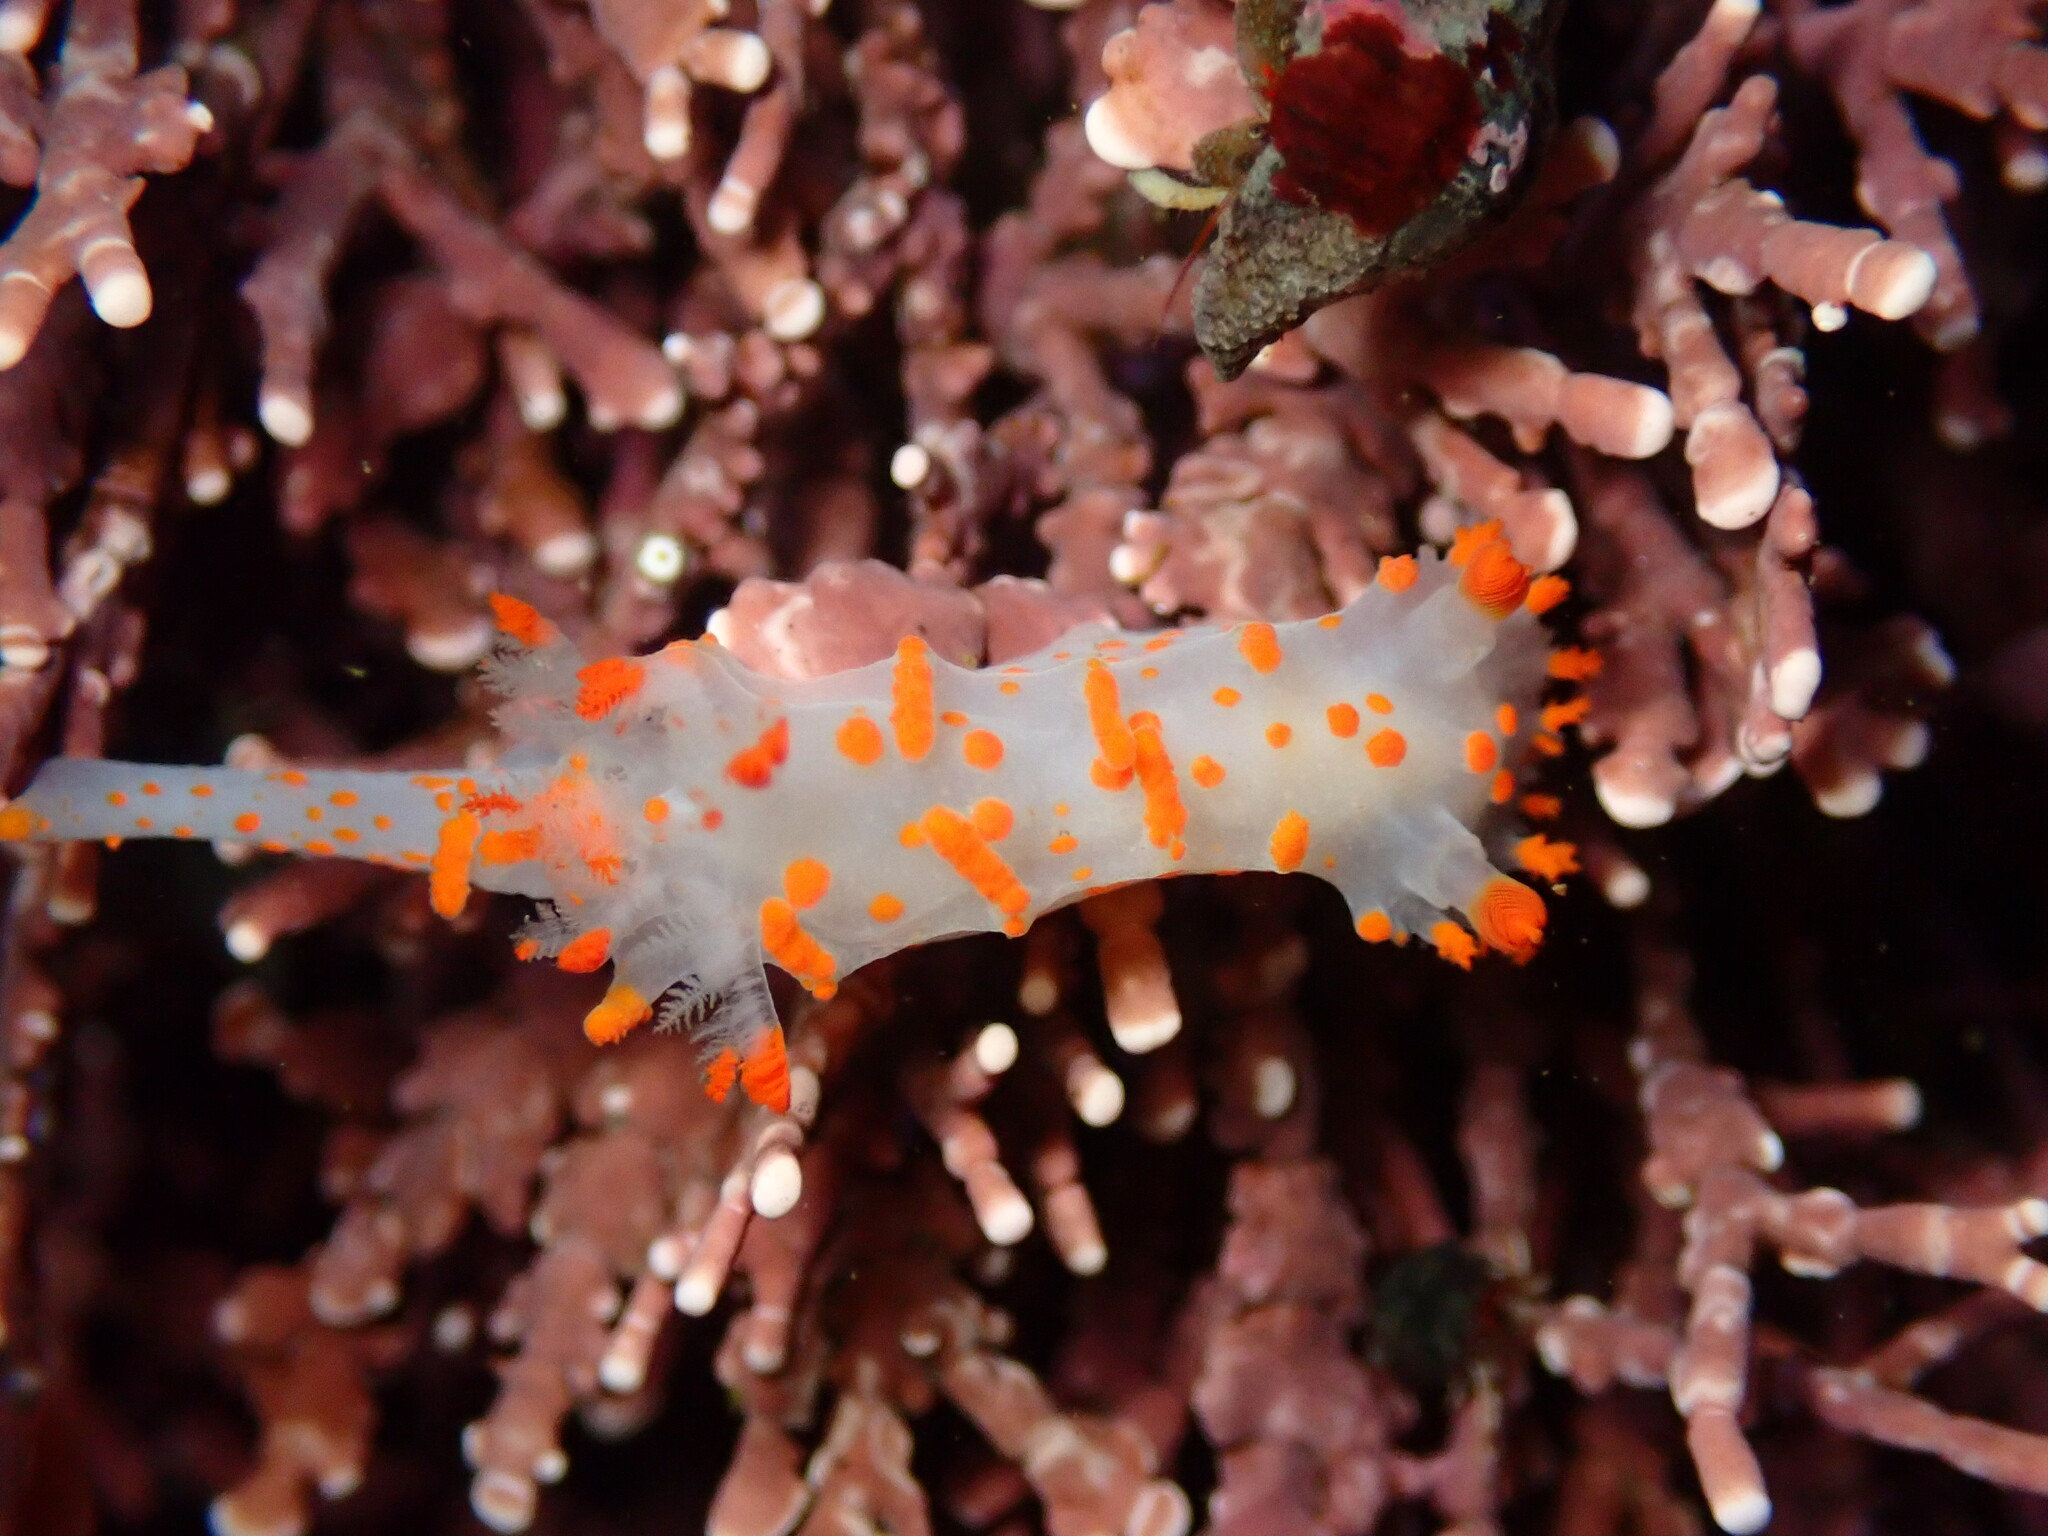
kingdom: Animalia
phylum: Mollusca
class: Gastropoda
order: Nudibranchia
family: Polyceridae
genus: Triopha
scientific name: Triopha catalinae
